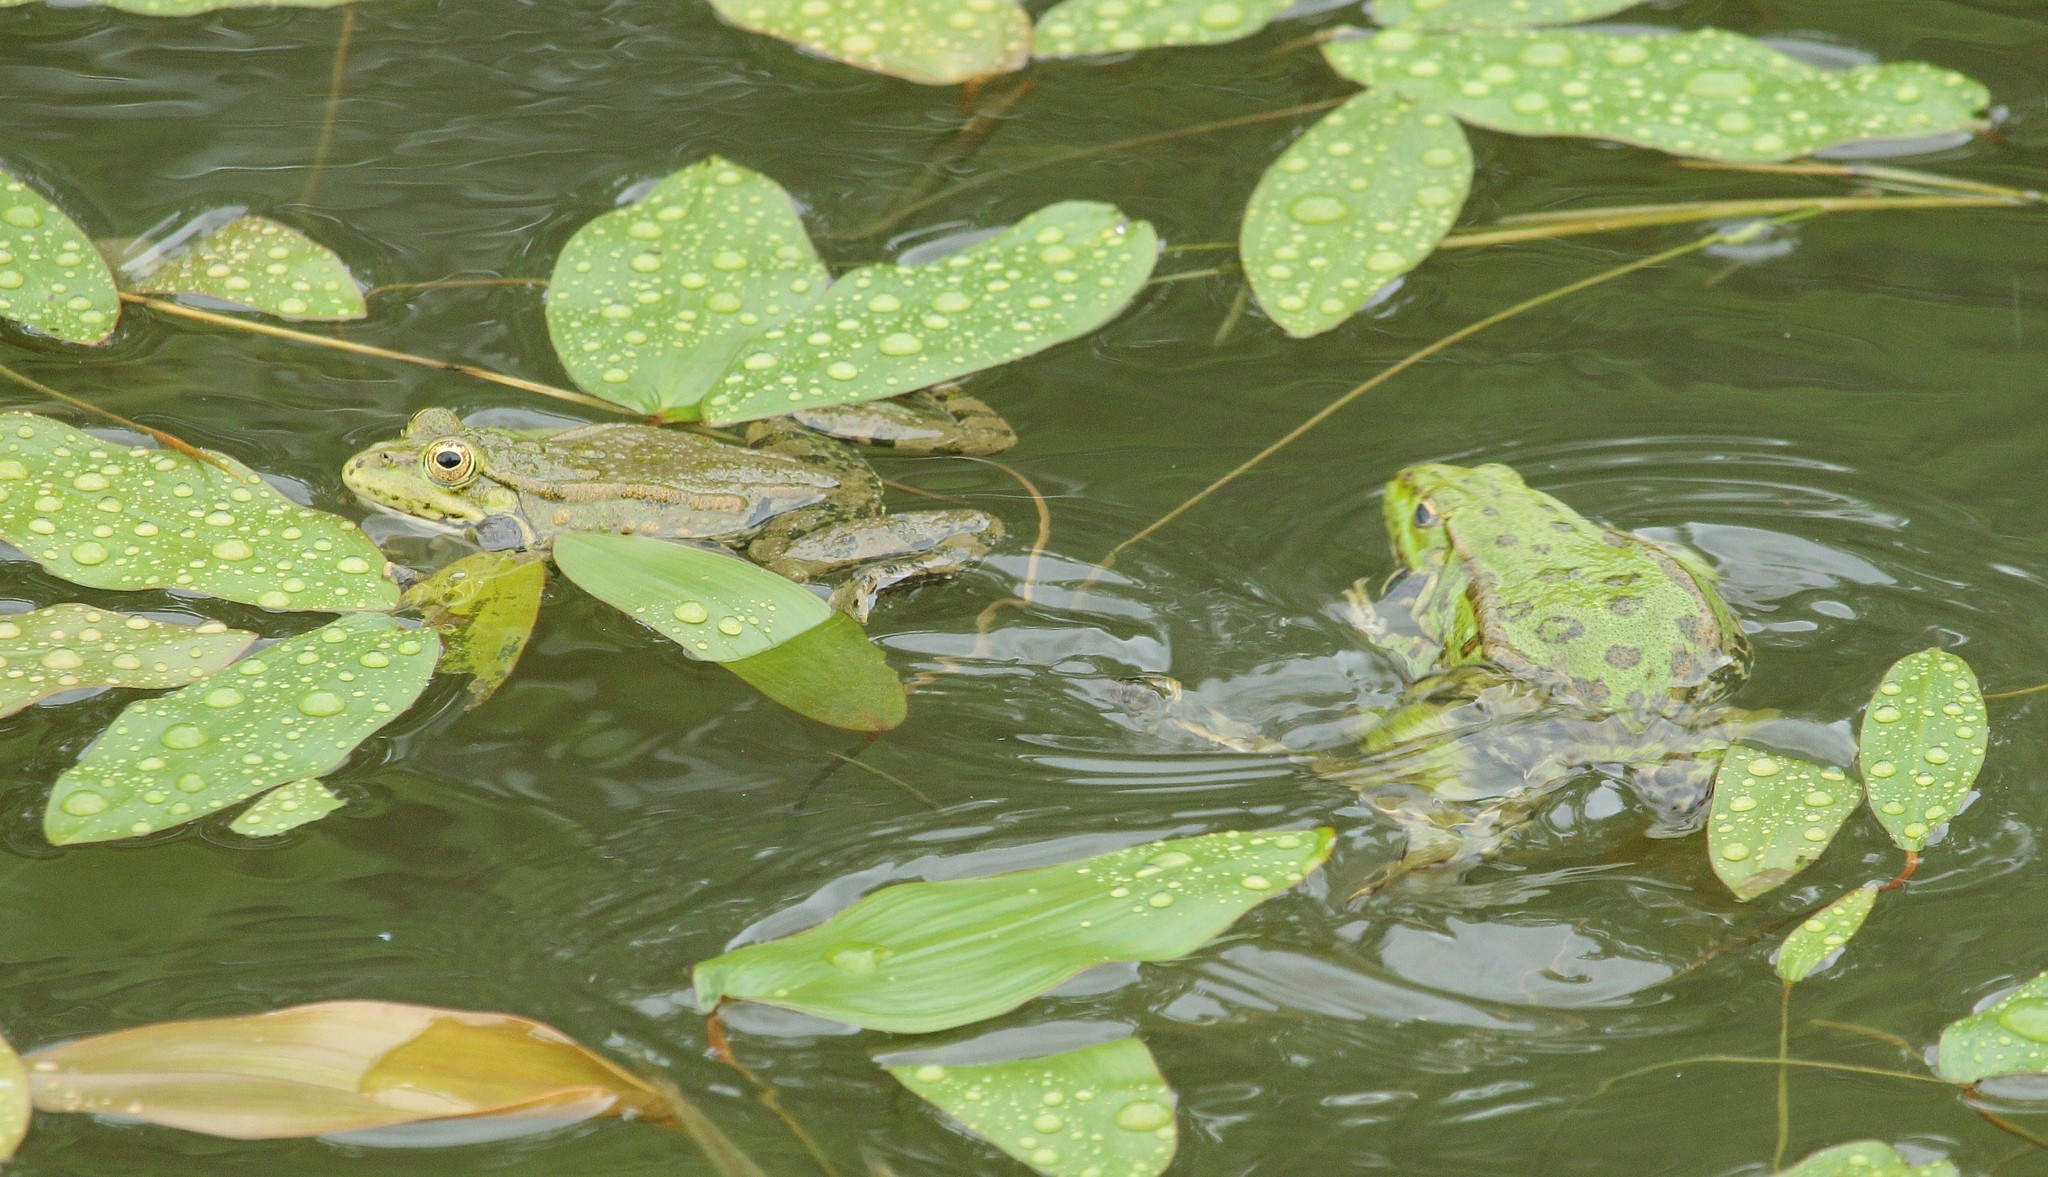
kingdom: Animalia
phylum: Chordata
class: Amphibia
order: Anura
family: Ranidae
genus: Pelophylax
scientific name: Pelophylax ridibundus
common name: Marsh frog
